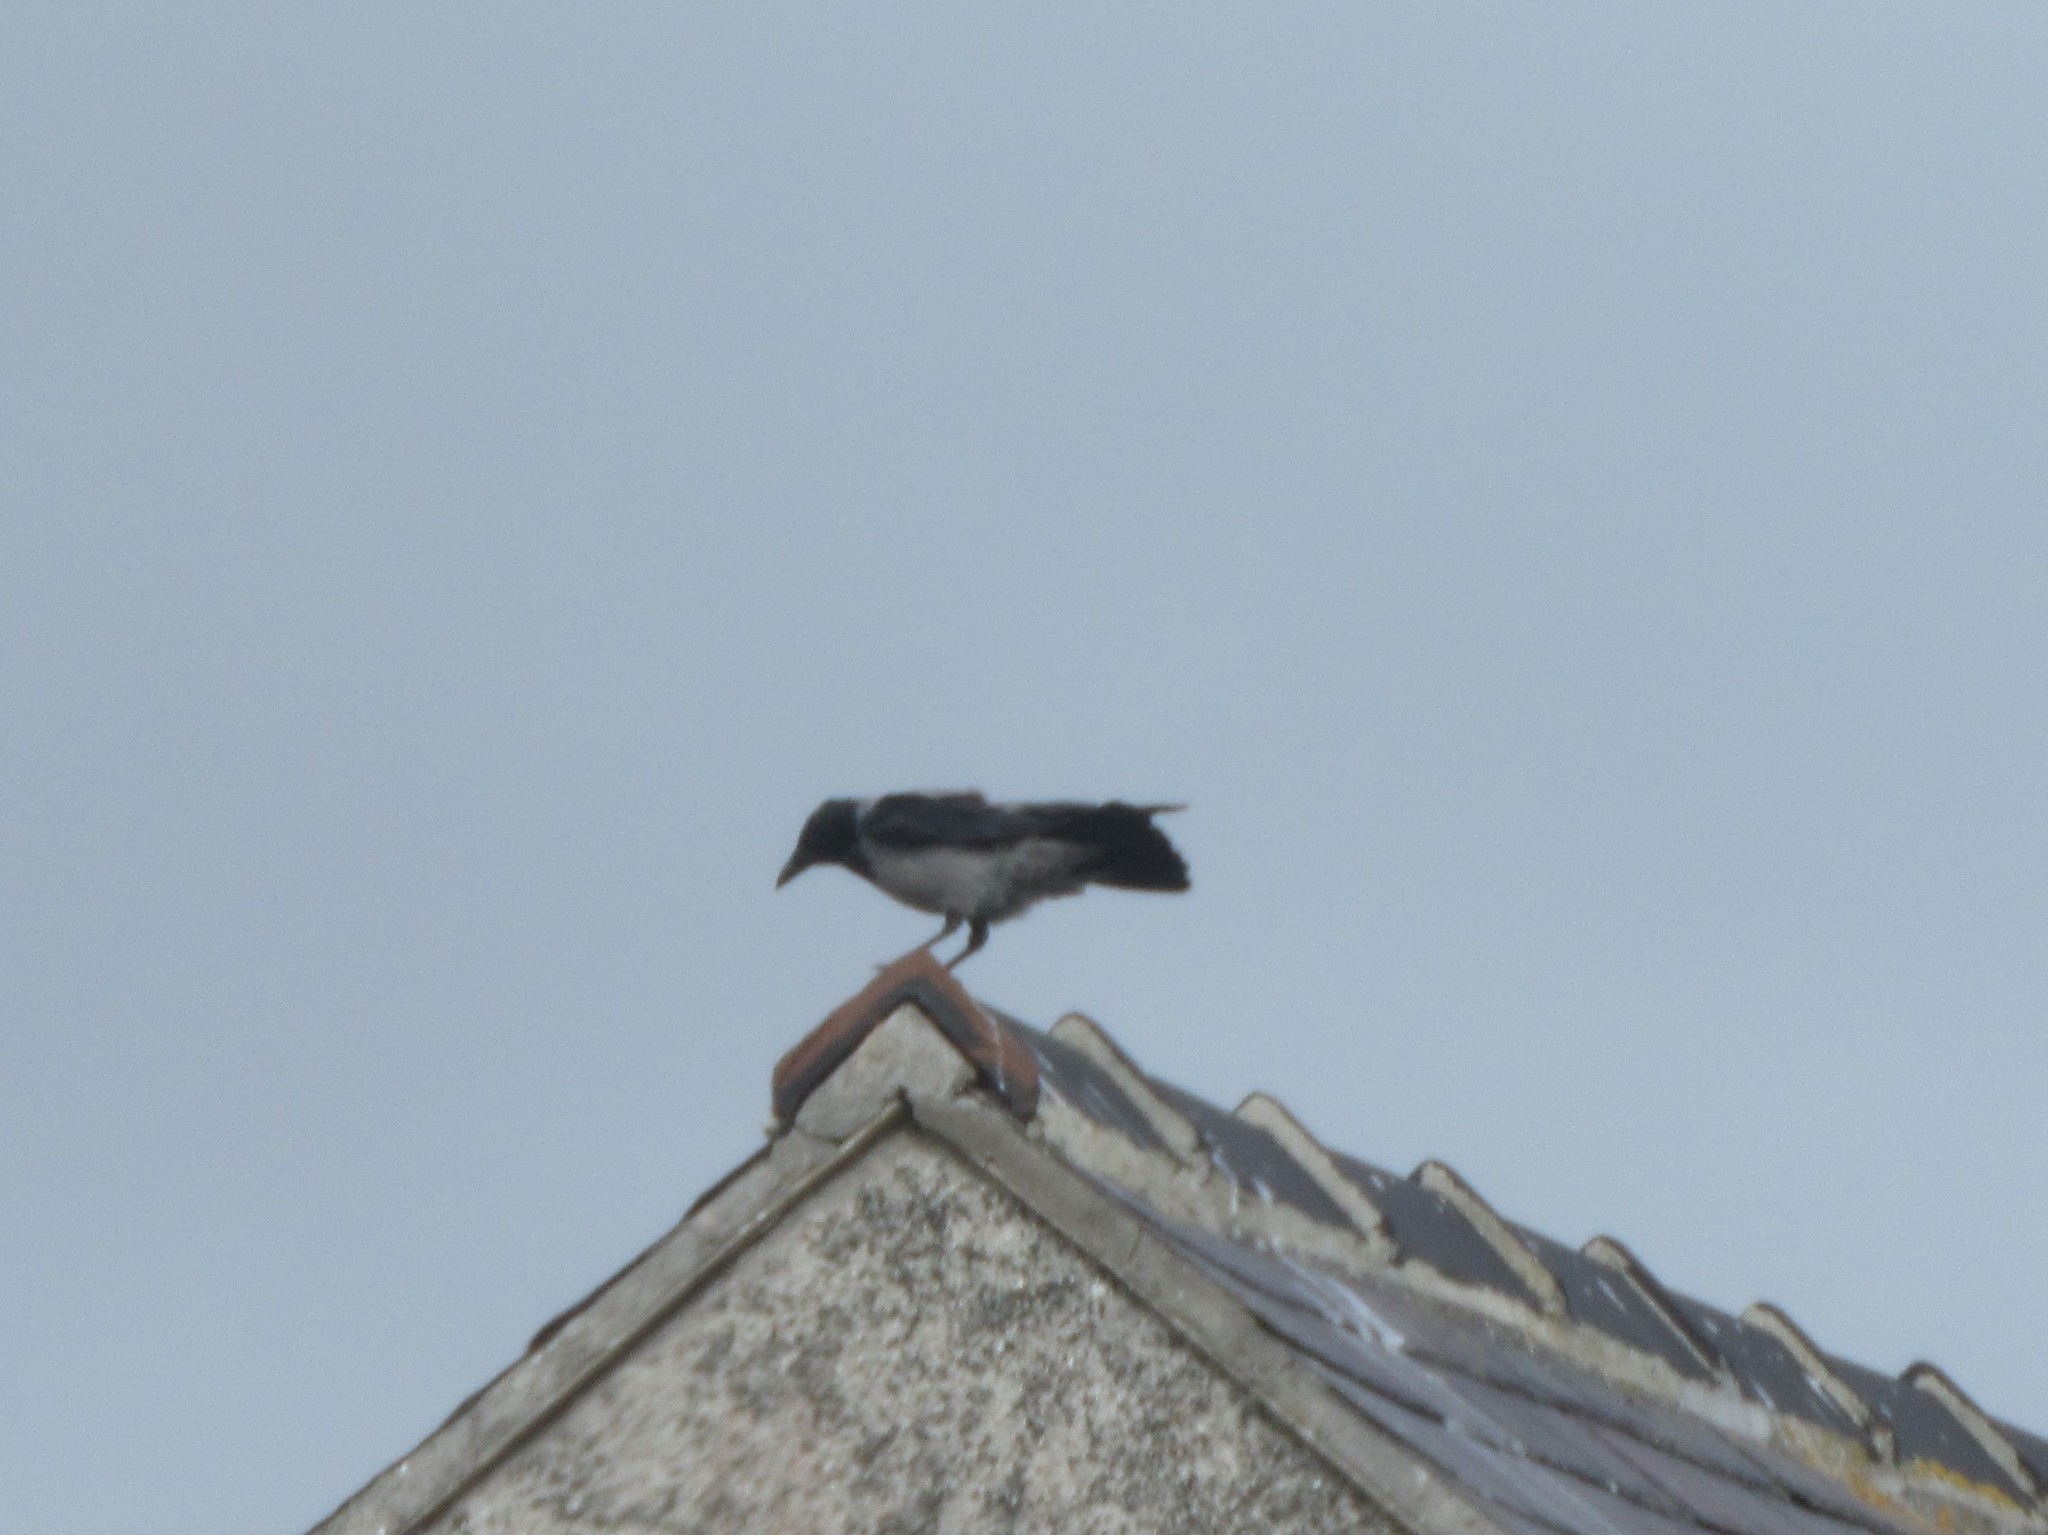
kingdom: Animalia
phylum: Chordata
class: Aves
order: Passeriformes
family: Corvidae
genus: Corvus
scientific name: Corvus cornix
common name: Hooded crow
